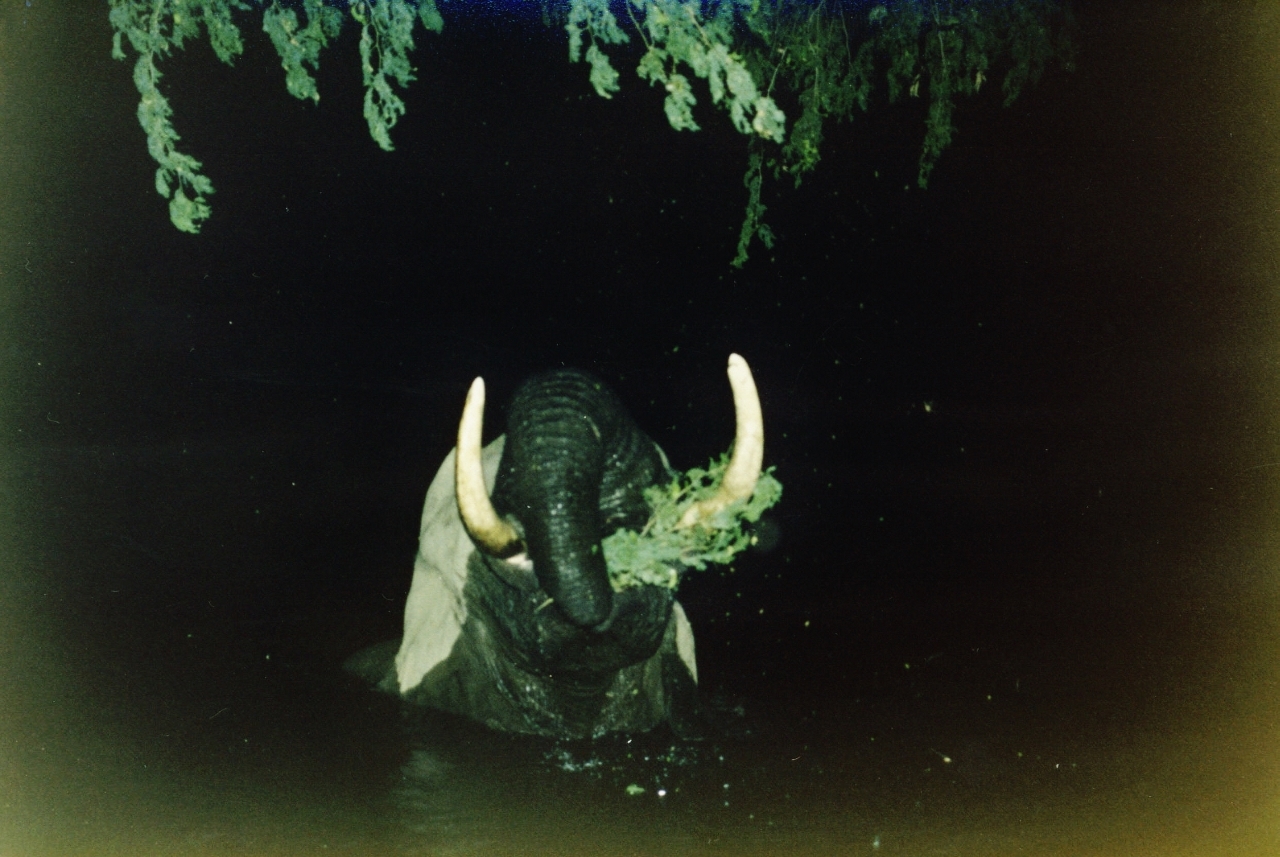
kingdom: Animalia
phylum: Chordata
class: Mammalia
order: Proboscidea
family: Elephantidae
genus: Loxodonta
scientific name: Loxodonta africana
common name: African elephant
